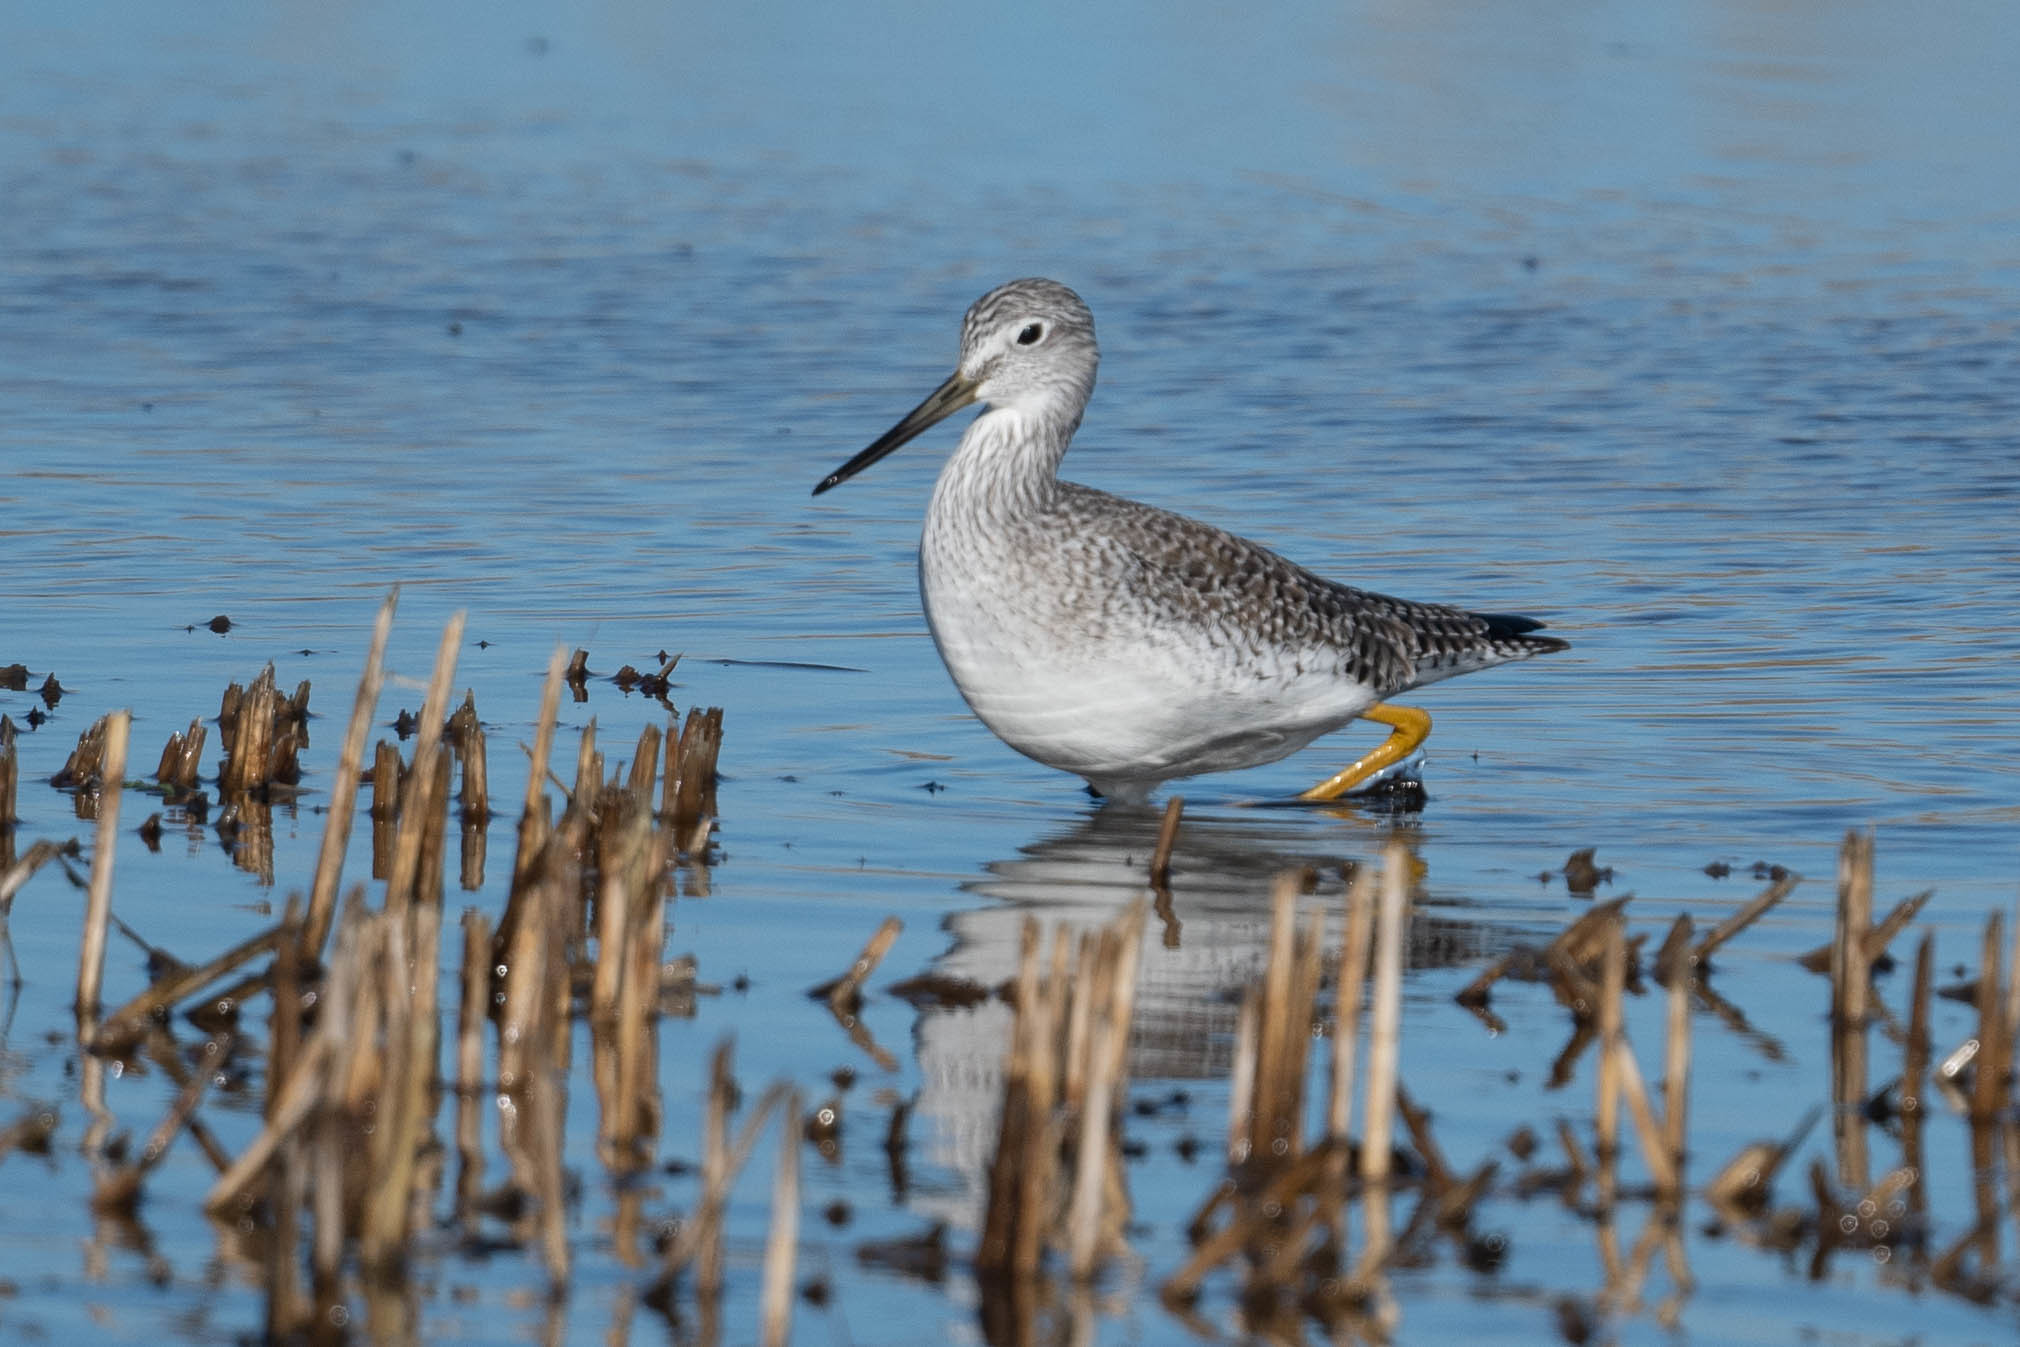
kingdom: Animalia
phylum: Chordata
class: Aves
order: Charadriiformes
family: Scolopacidae
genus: Tringa
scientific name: Tringa melanoleuca
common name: Greater yellowlegs
